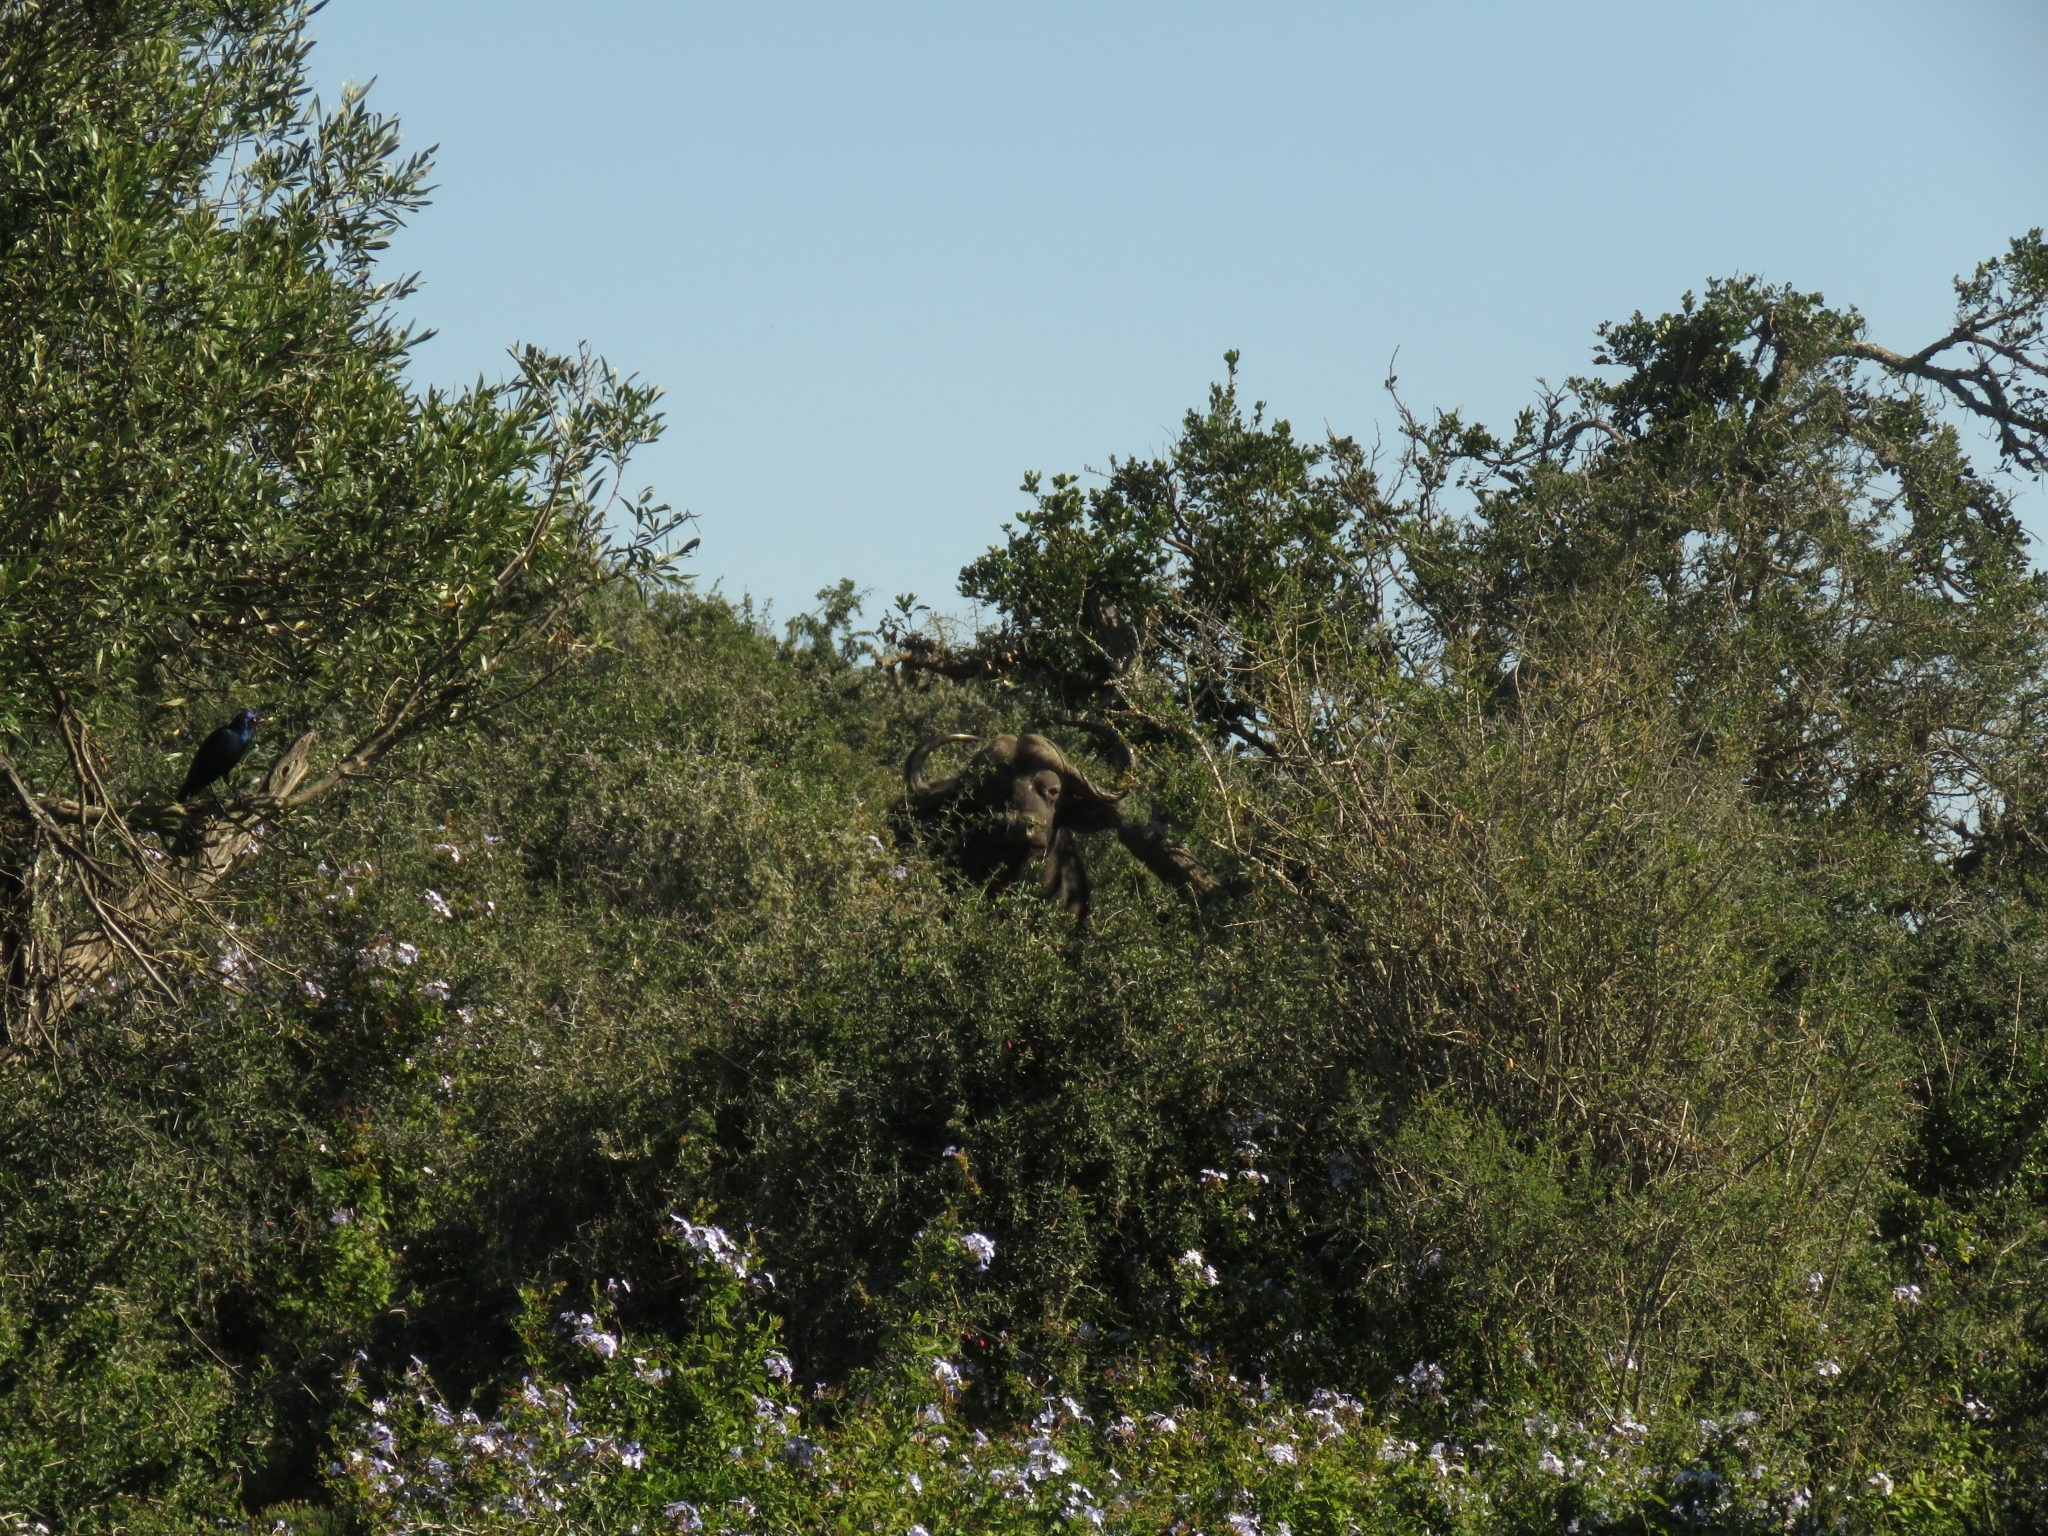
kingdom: Animalia
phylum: Chordata
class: Mammalia
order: Artiodactyla
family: Bovidae
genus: Syncerus
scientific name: Syncerus caffer
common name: African buffalo
